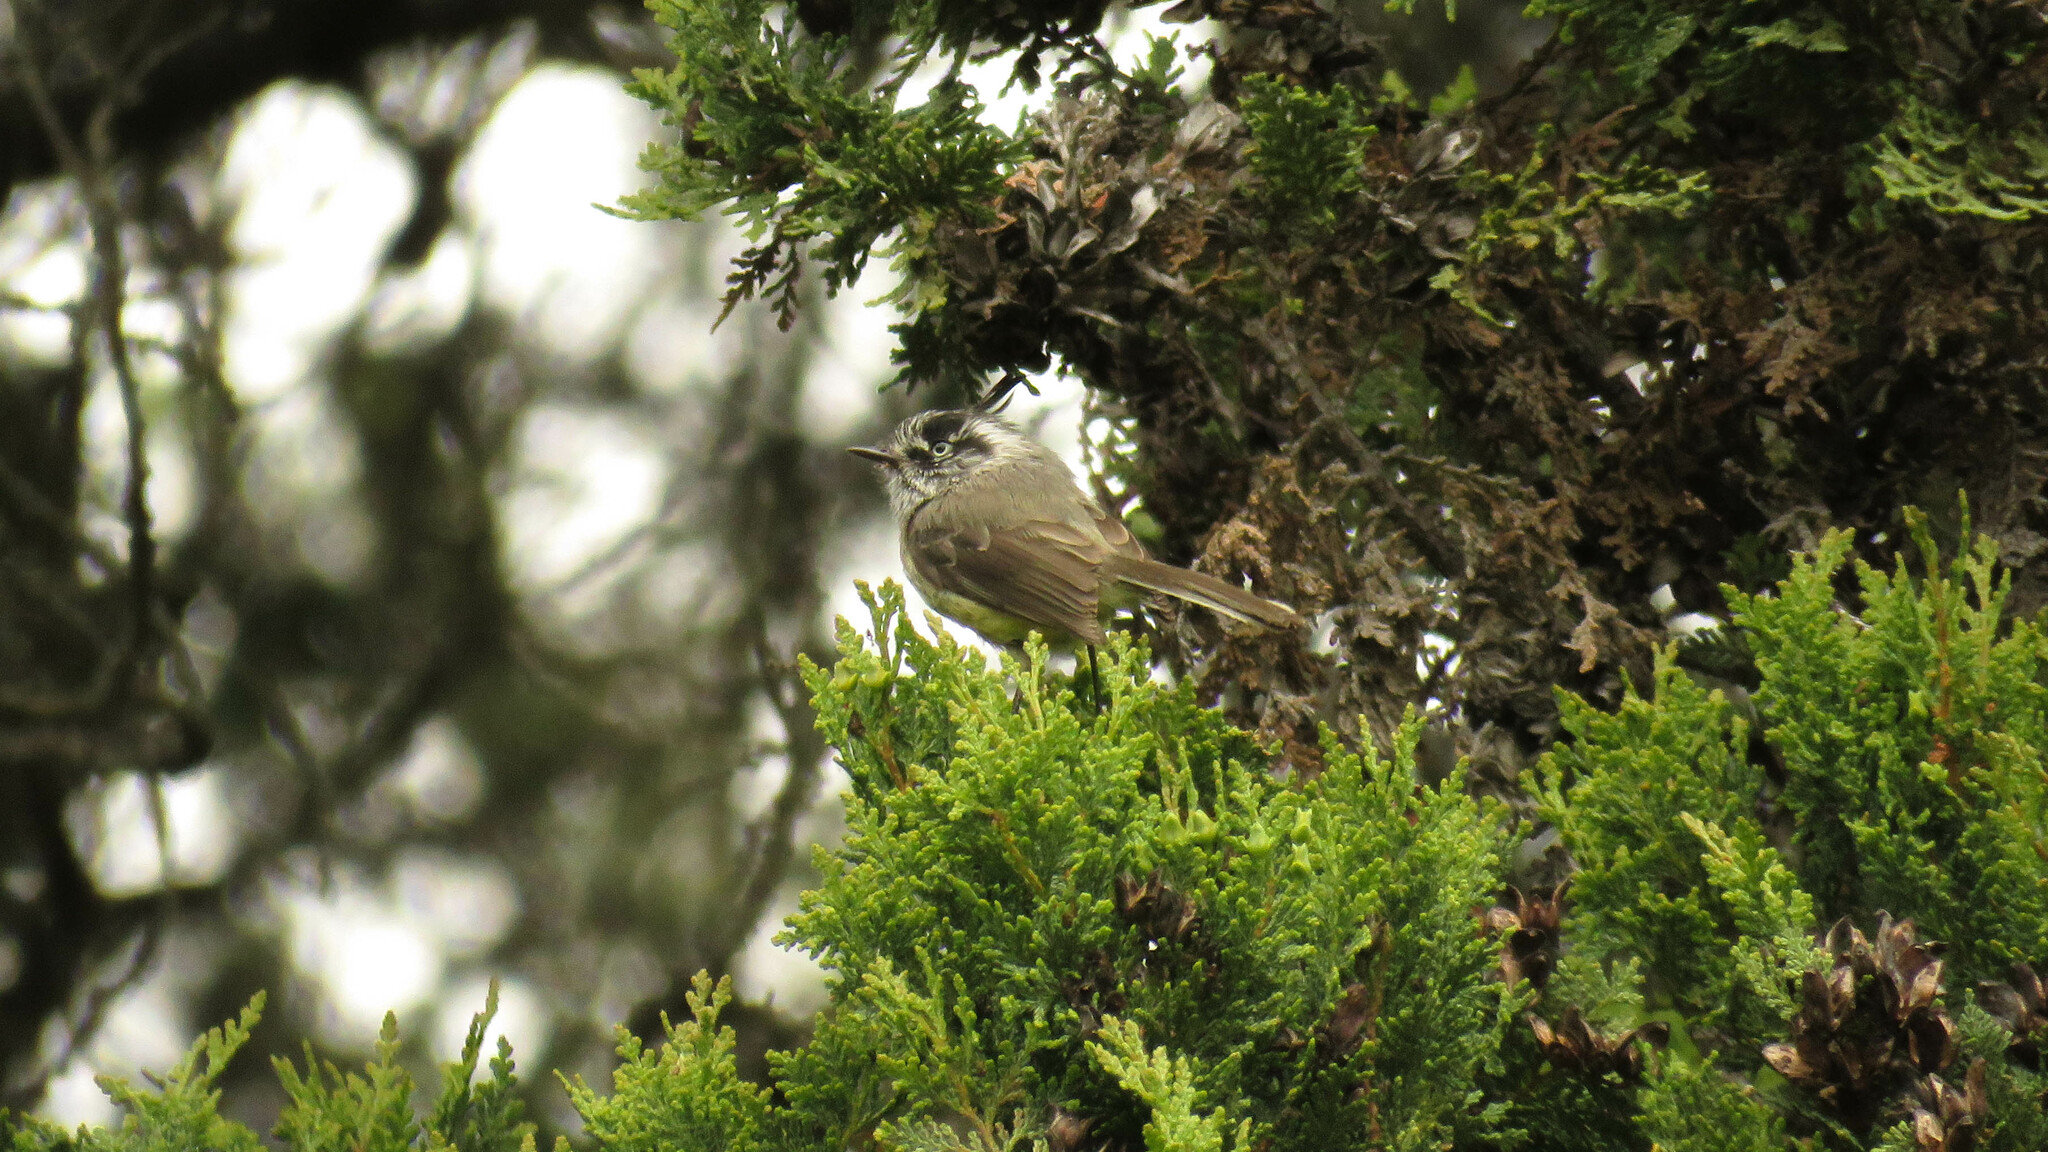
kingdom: Animalia
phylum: Chordata
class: Aves
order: Passeriformes
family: Tyrannidae
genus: Anairetes
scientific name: Anairetes parulus
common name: Tufted tit-tyrant
